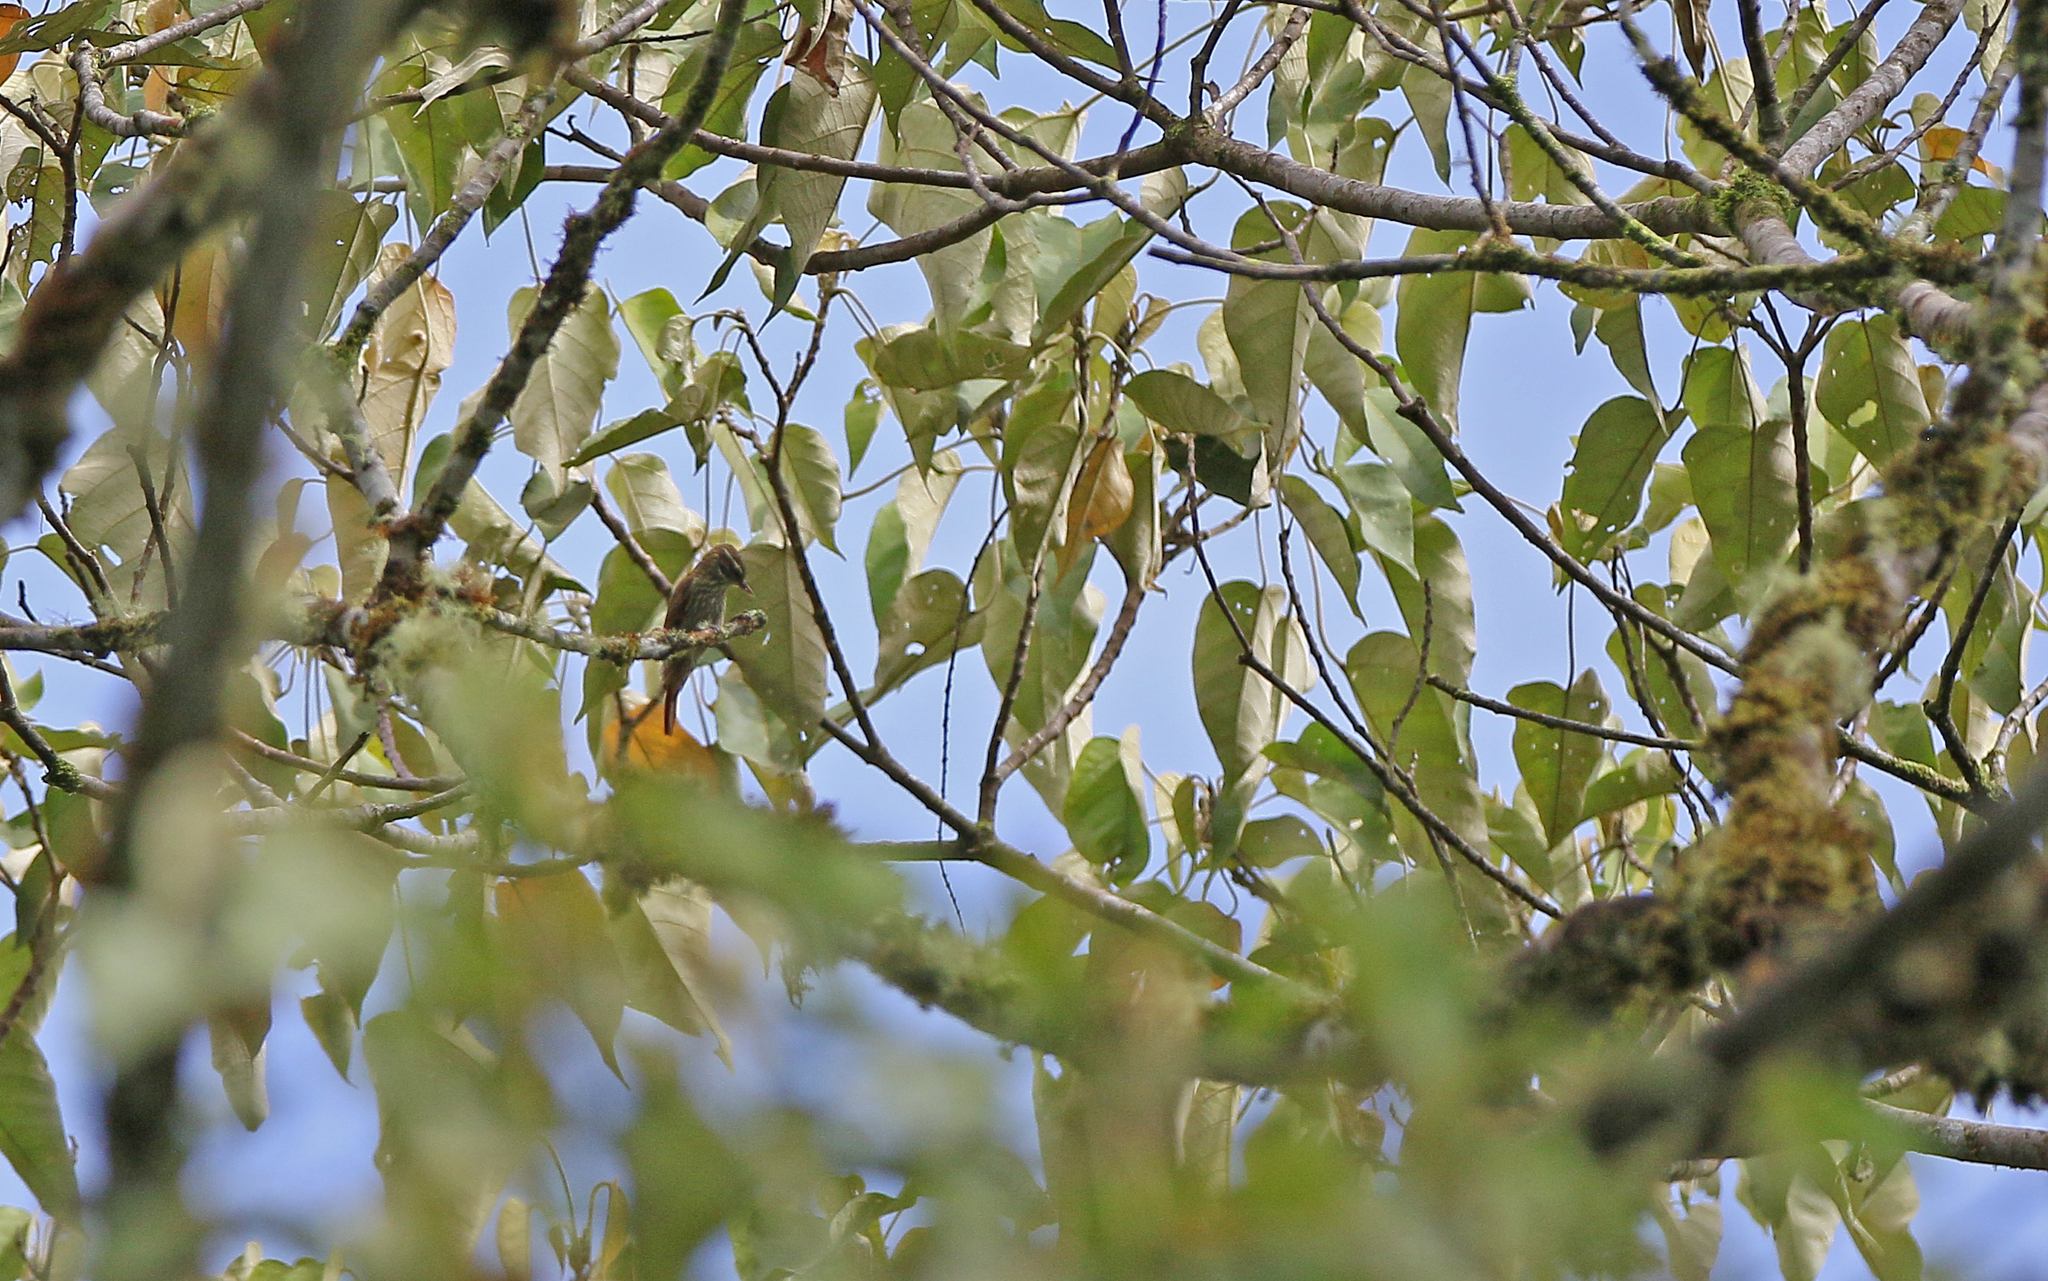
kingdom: Animalia
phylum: Chordata
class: Aves
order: Passeriformes
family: Furnariidae
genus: Xenops
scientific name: Xenops rutilans
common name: Streaked xenops
